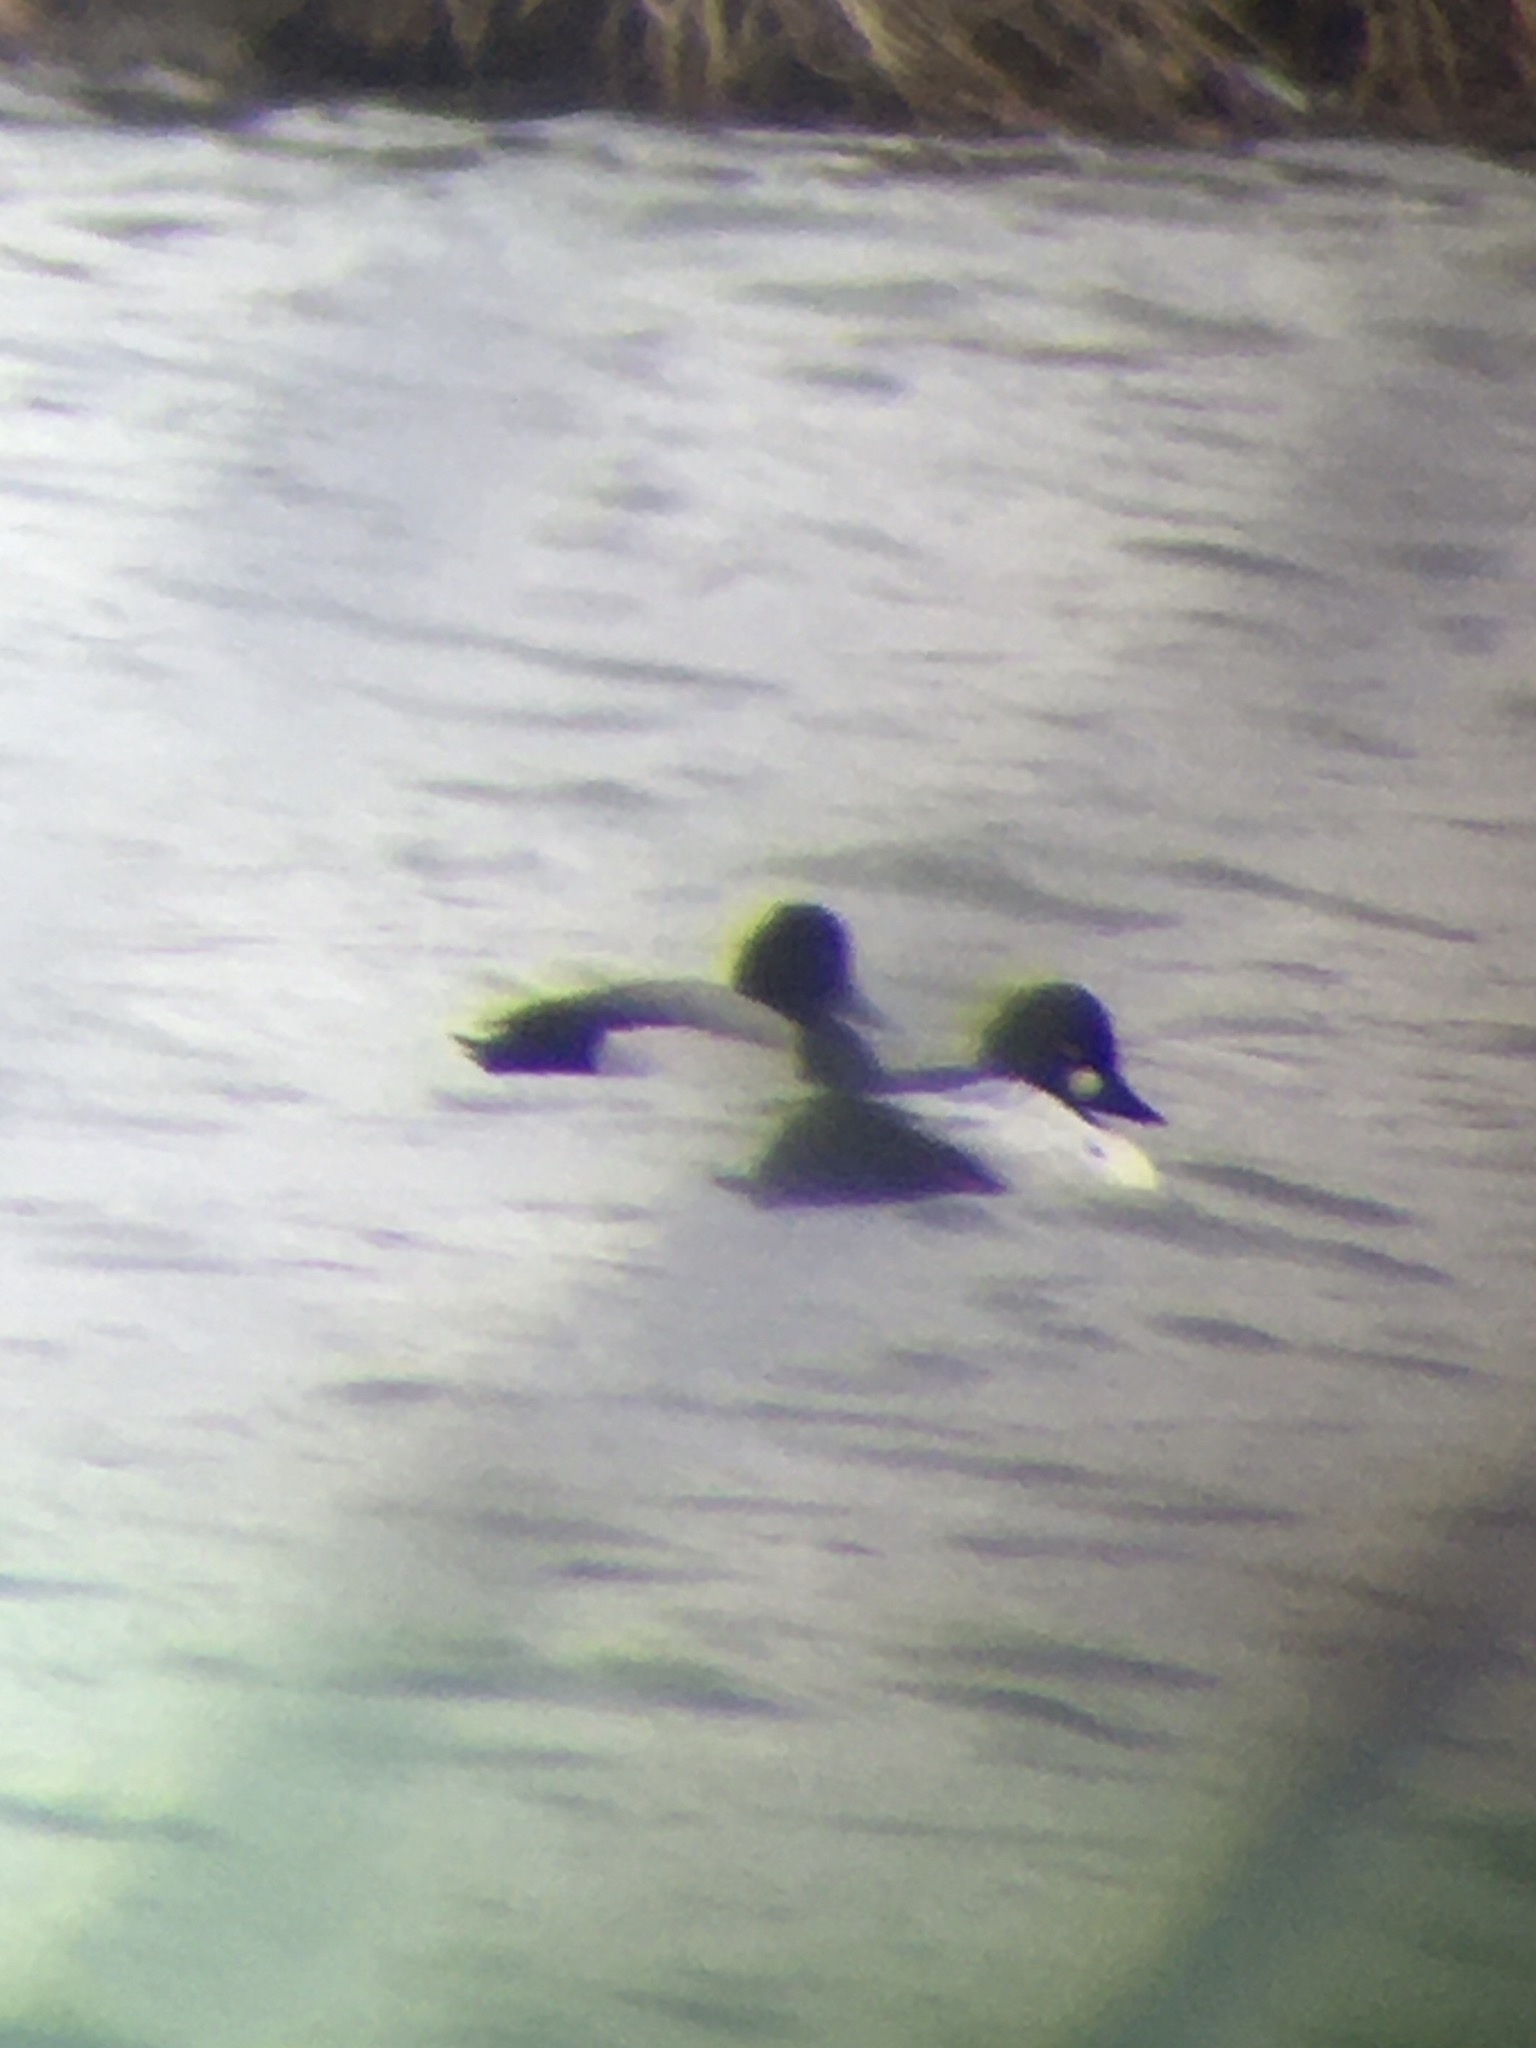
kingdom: Animalia
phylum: Chordata
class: Aves
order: Anseriformes
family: Anatidae
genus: Aythya
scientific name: Aythya affinis
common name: Lesser scaup
